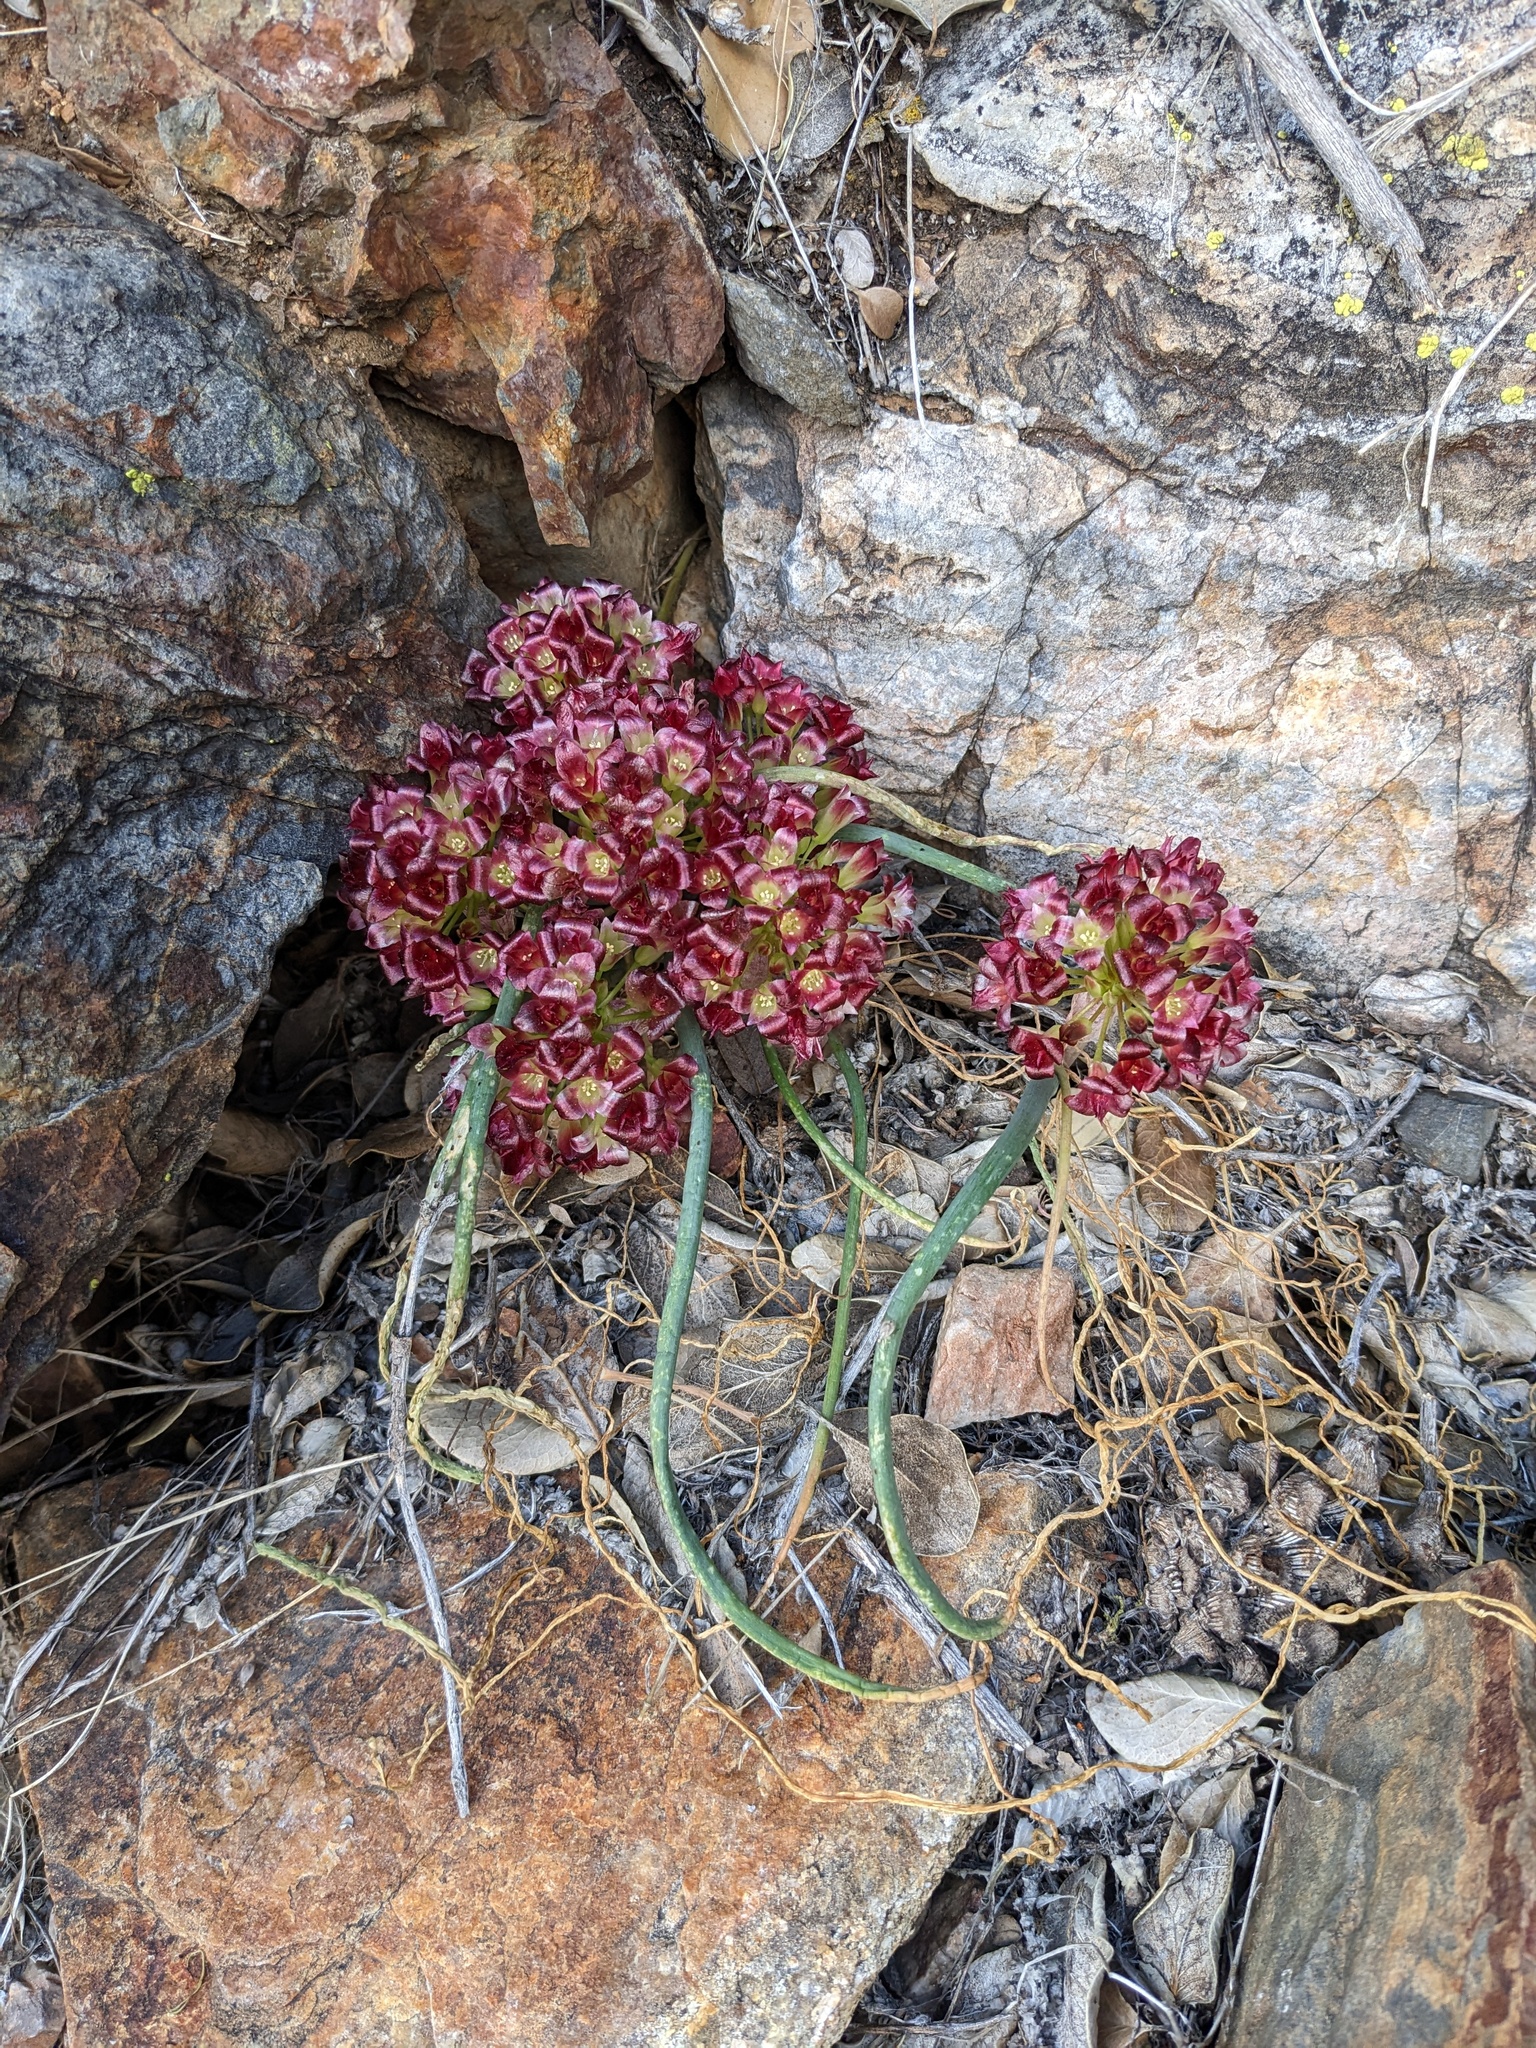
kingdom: Plantae
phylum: Tracheophyta
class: Liliopsida
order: Asparagales
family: Amaryllidaceae
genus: Allium
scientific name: Allium shevockii
